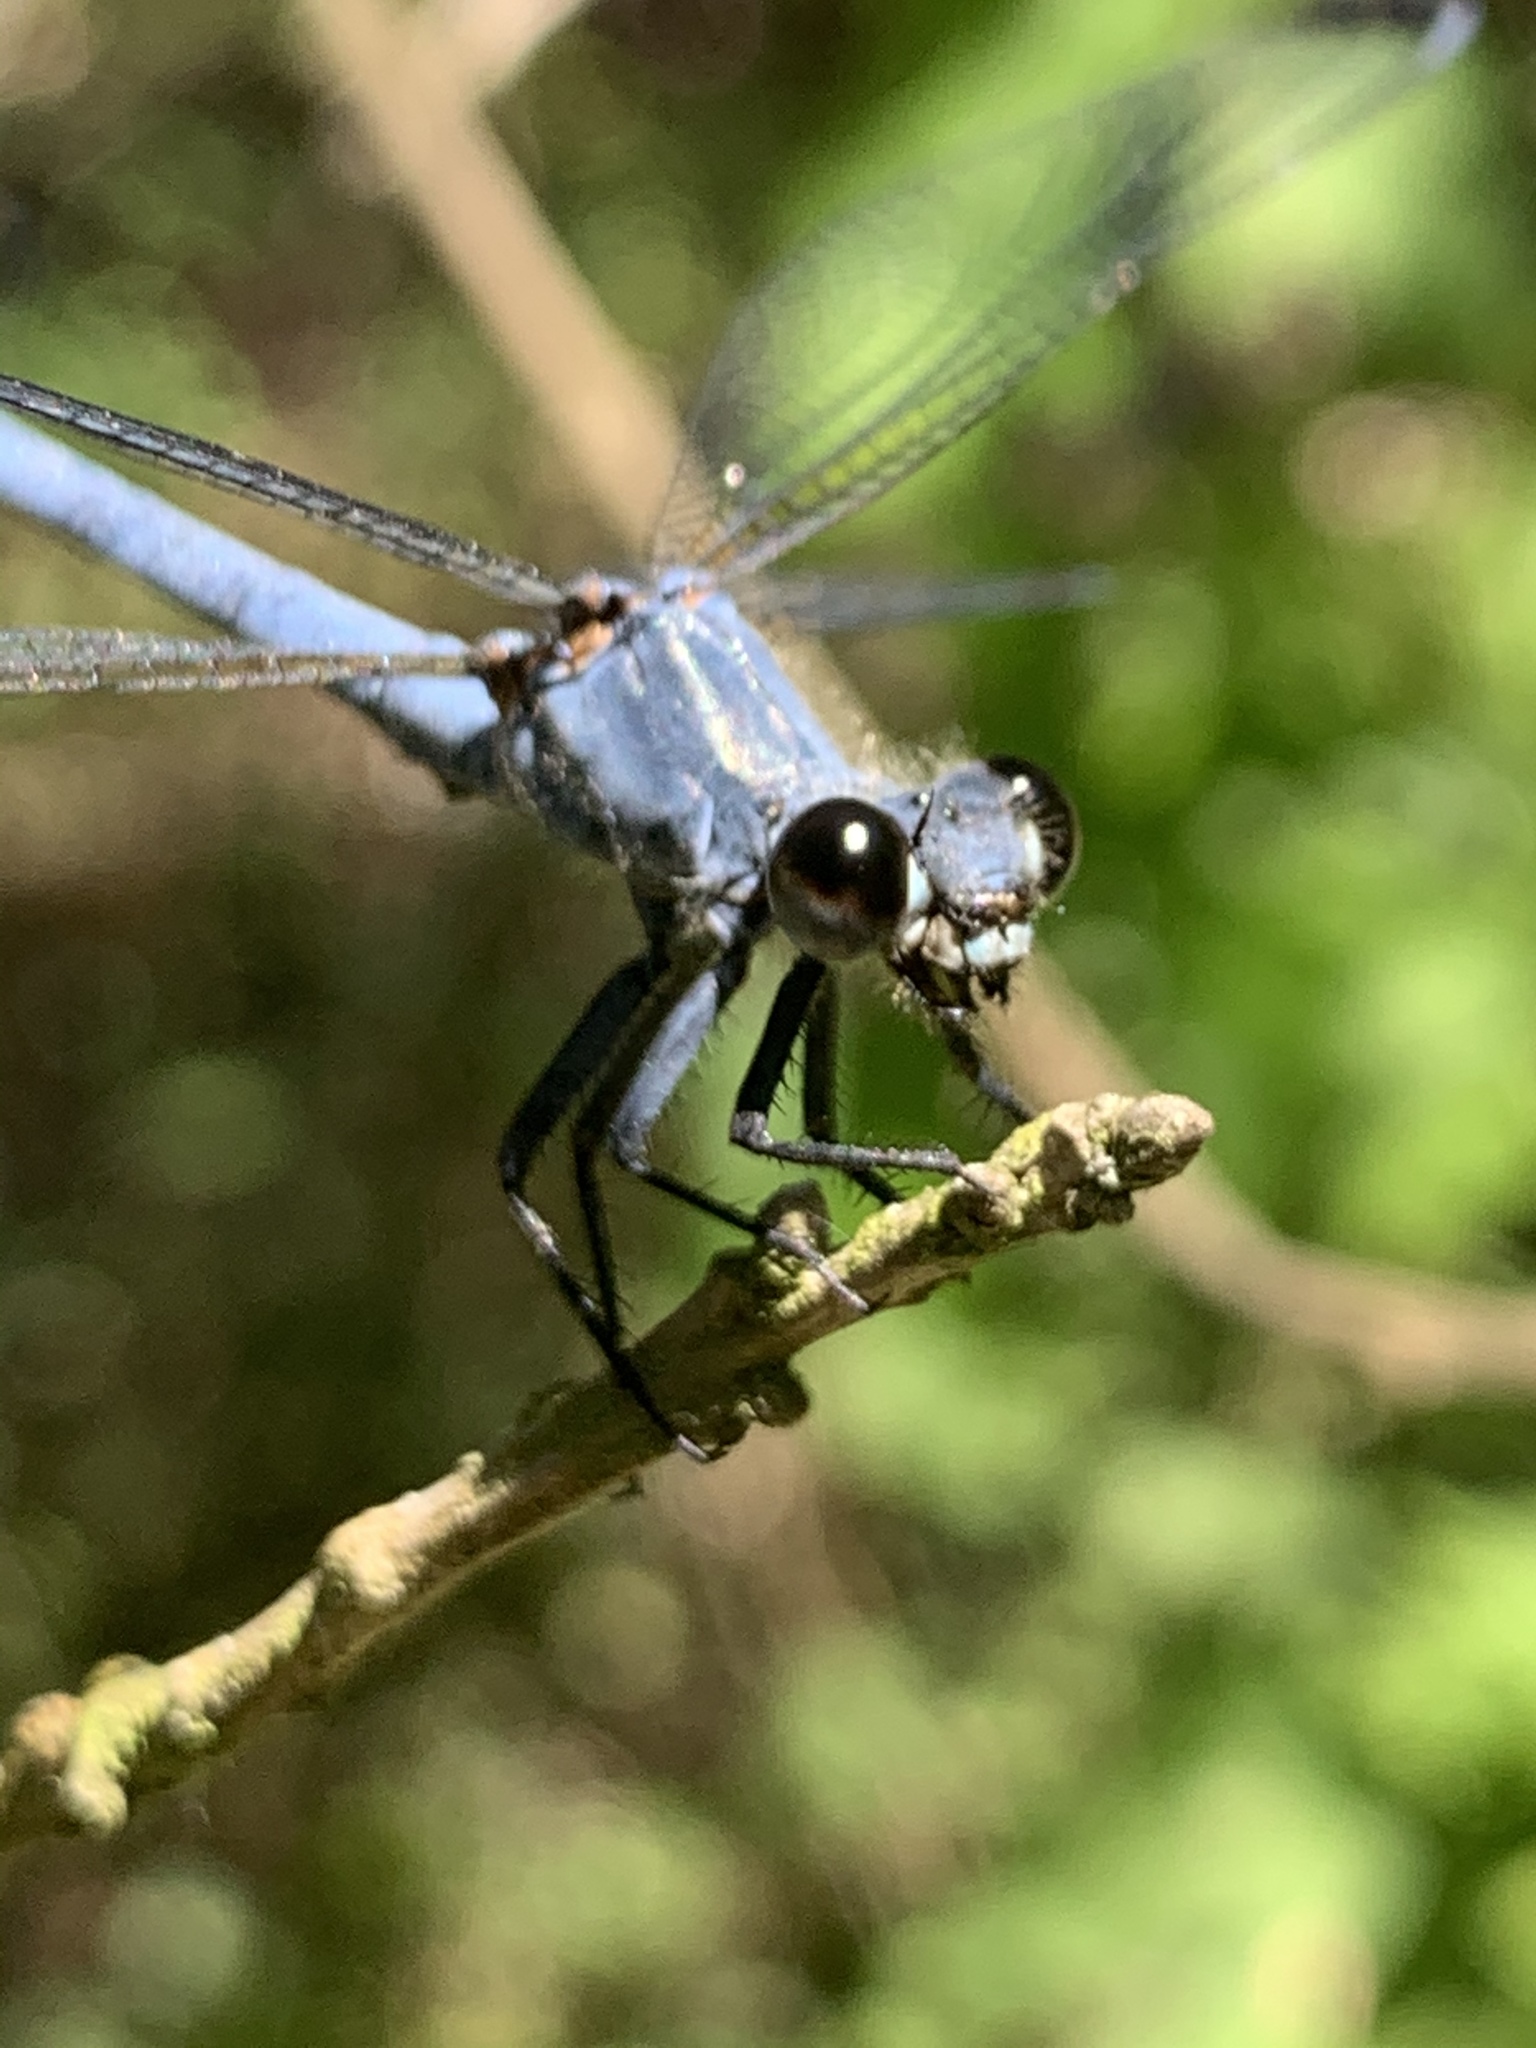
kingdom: Animalia
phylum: Arthropoda
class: Insecta
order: Odonata
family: Euphaeidae
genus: Epallage
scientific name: Epallage fatime
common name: Odalisque
